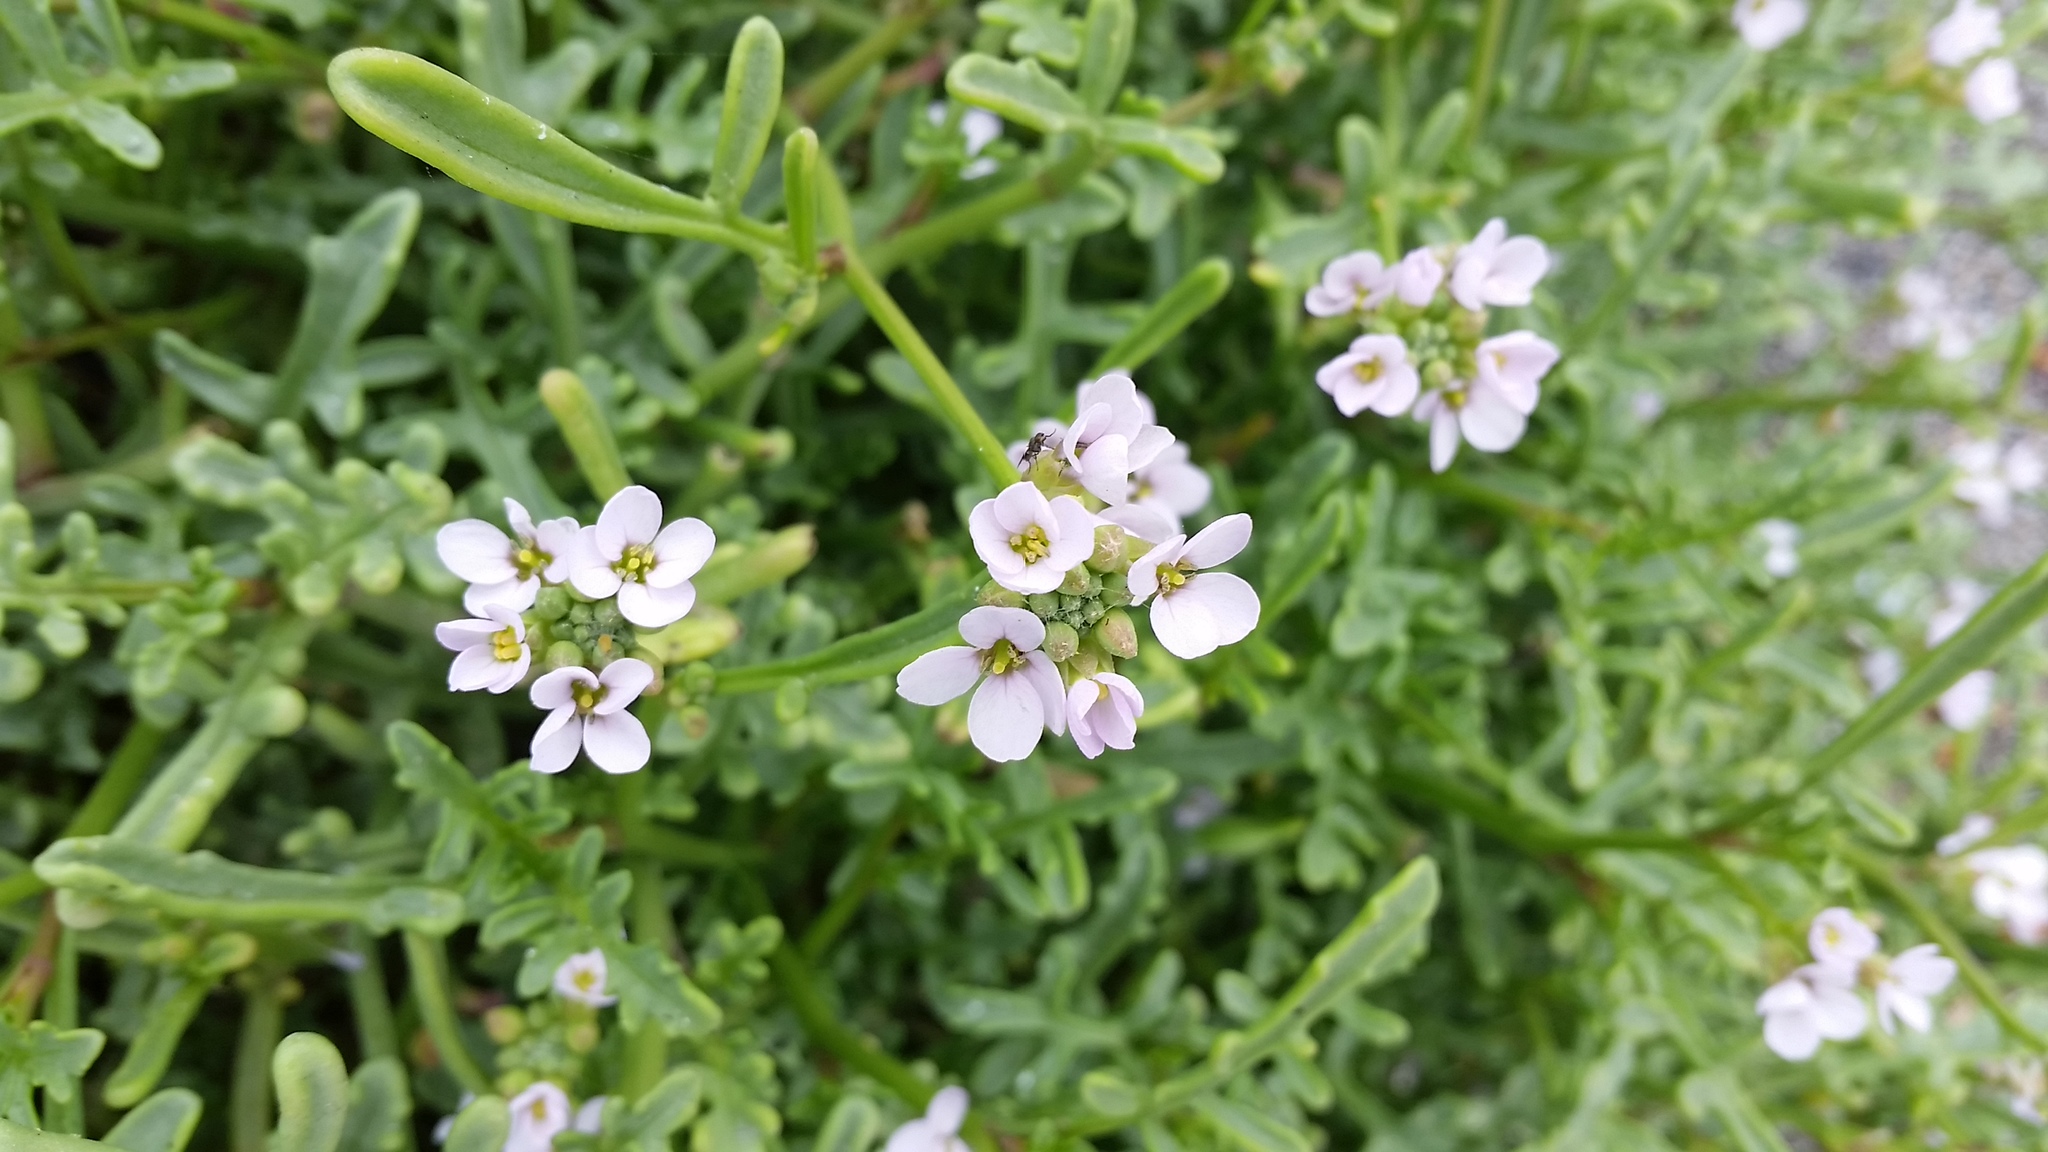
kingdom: Plantae
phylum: Tracheophyta
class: Magnoliopsida
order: Brassicales
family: Brassicaceae
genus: Cakile
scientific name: Cakile maritima
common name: Sea rocket
